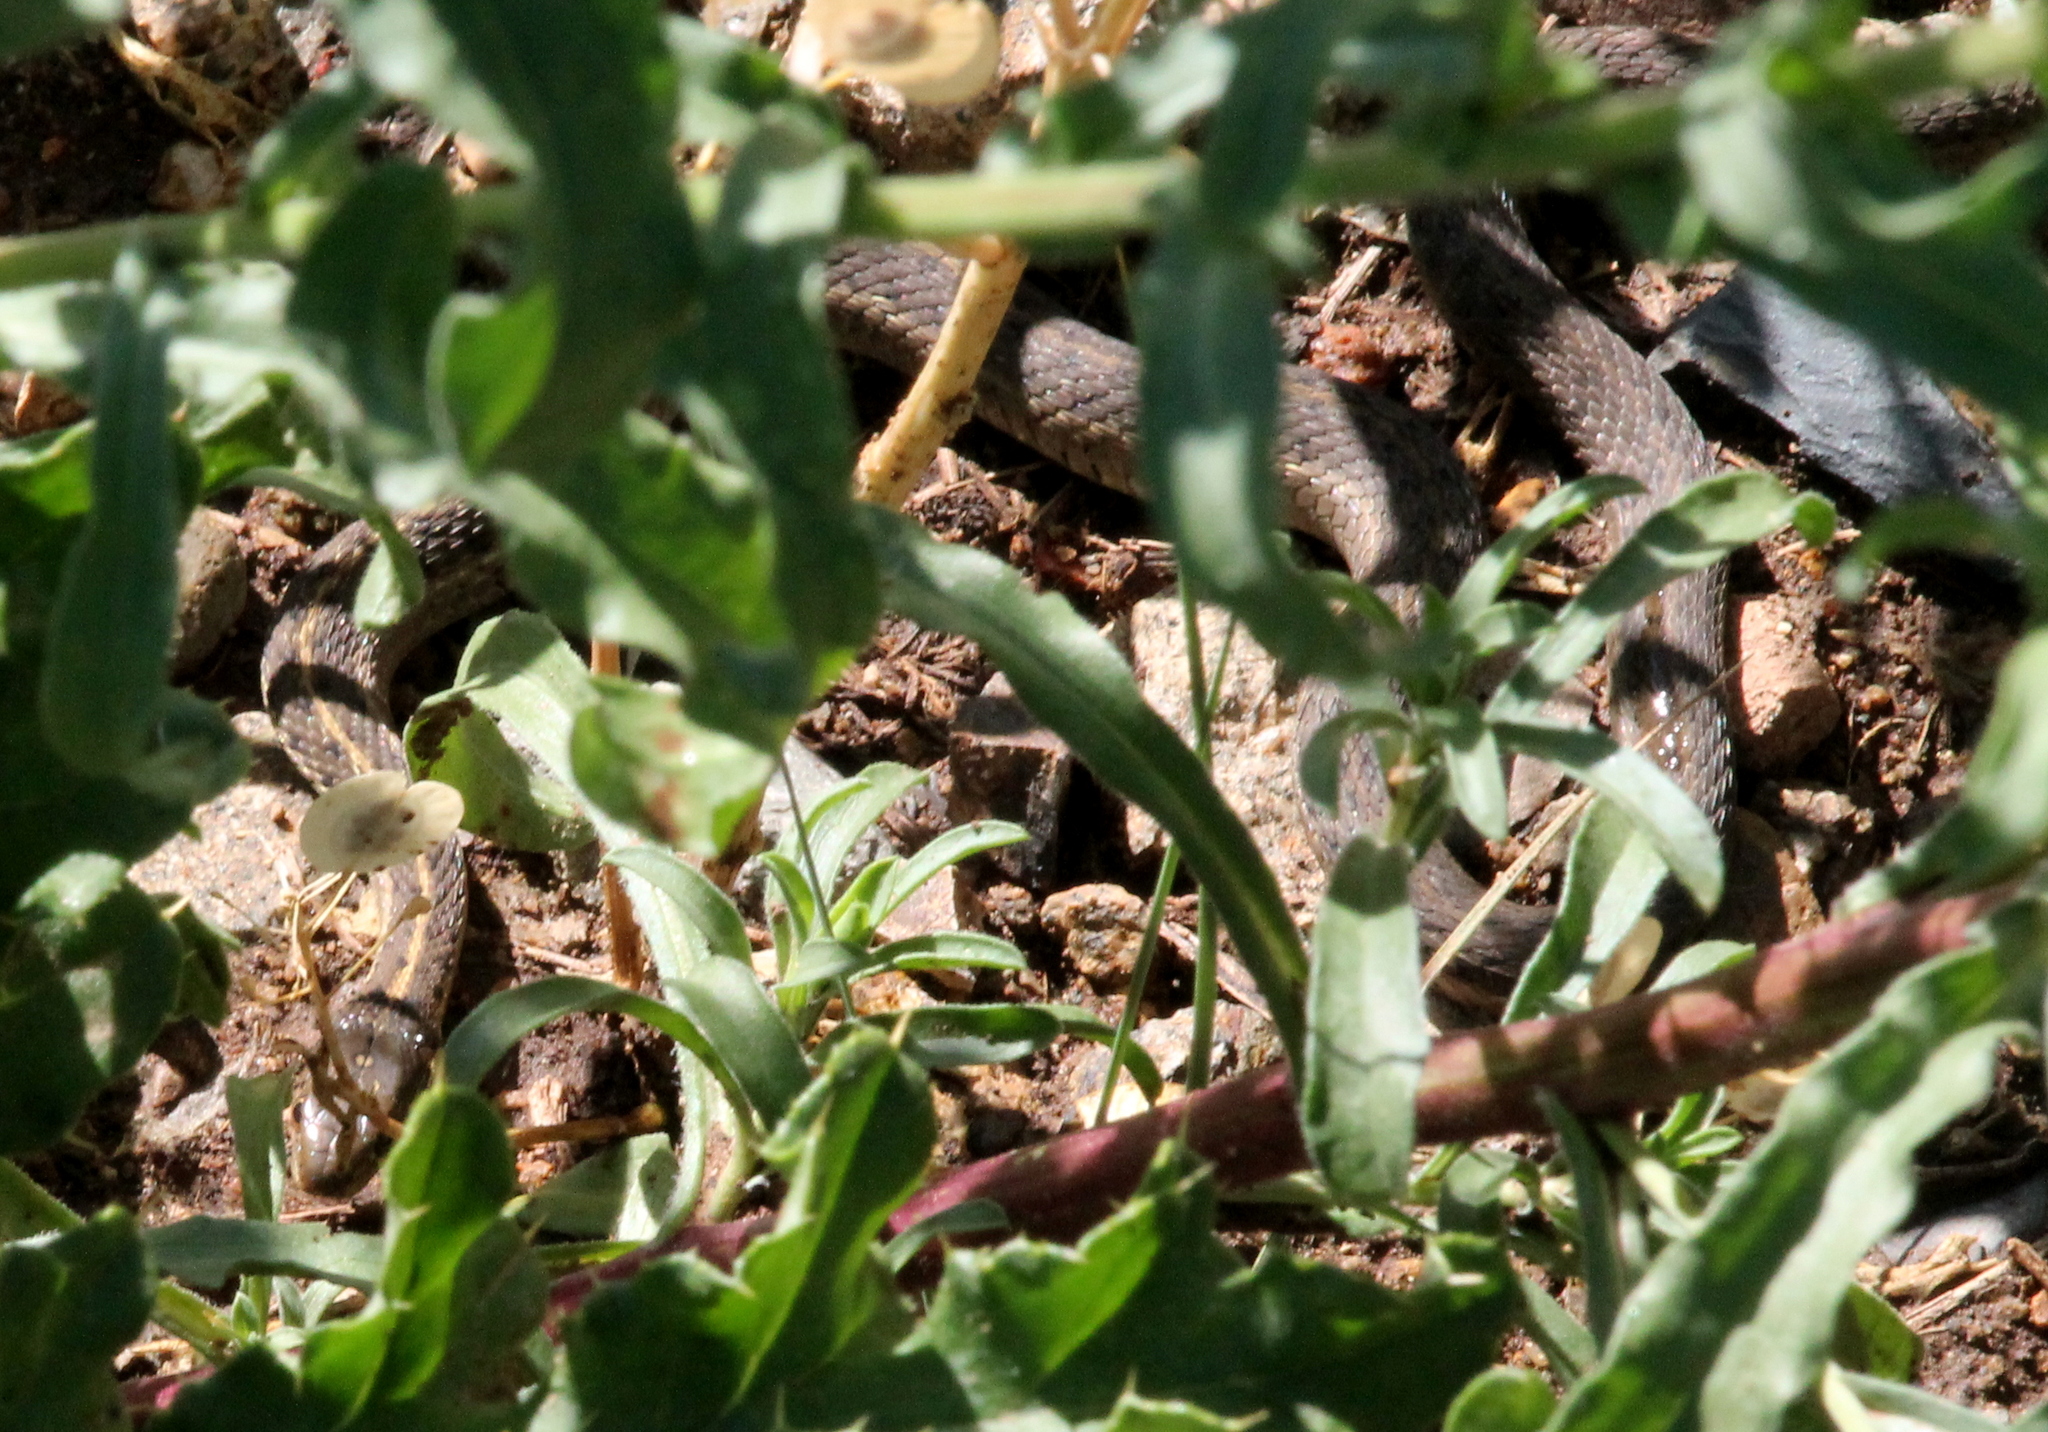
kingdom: Animalia
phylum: Chordata
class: Squamata
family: Colubridae
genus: Thamnophis
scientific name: Thamnophis elegans
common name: Western terrestrial garter snake
